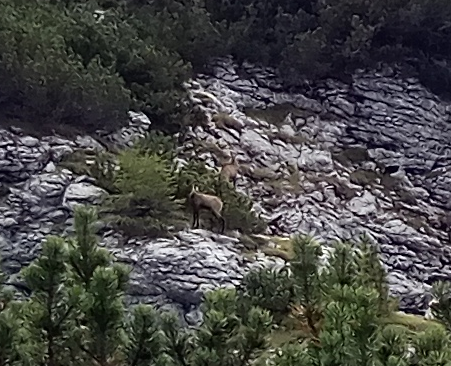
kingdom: Animalia
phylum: Chordata
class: Mammalia
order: Artiodactyla
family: Bovidae
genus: Rupicapra
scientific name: Rupicapra rupicapra
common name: Chamois
